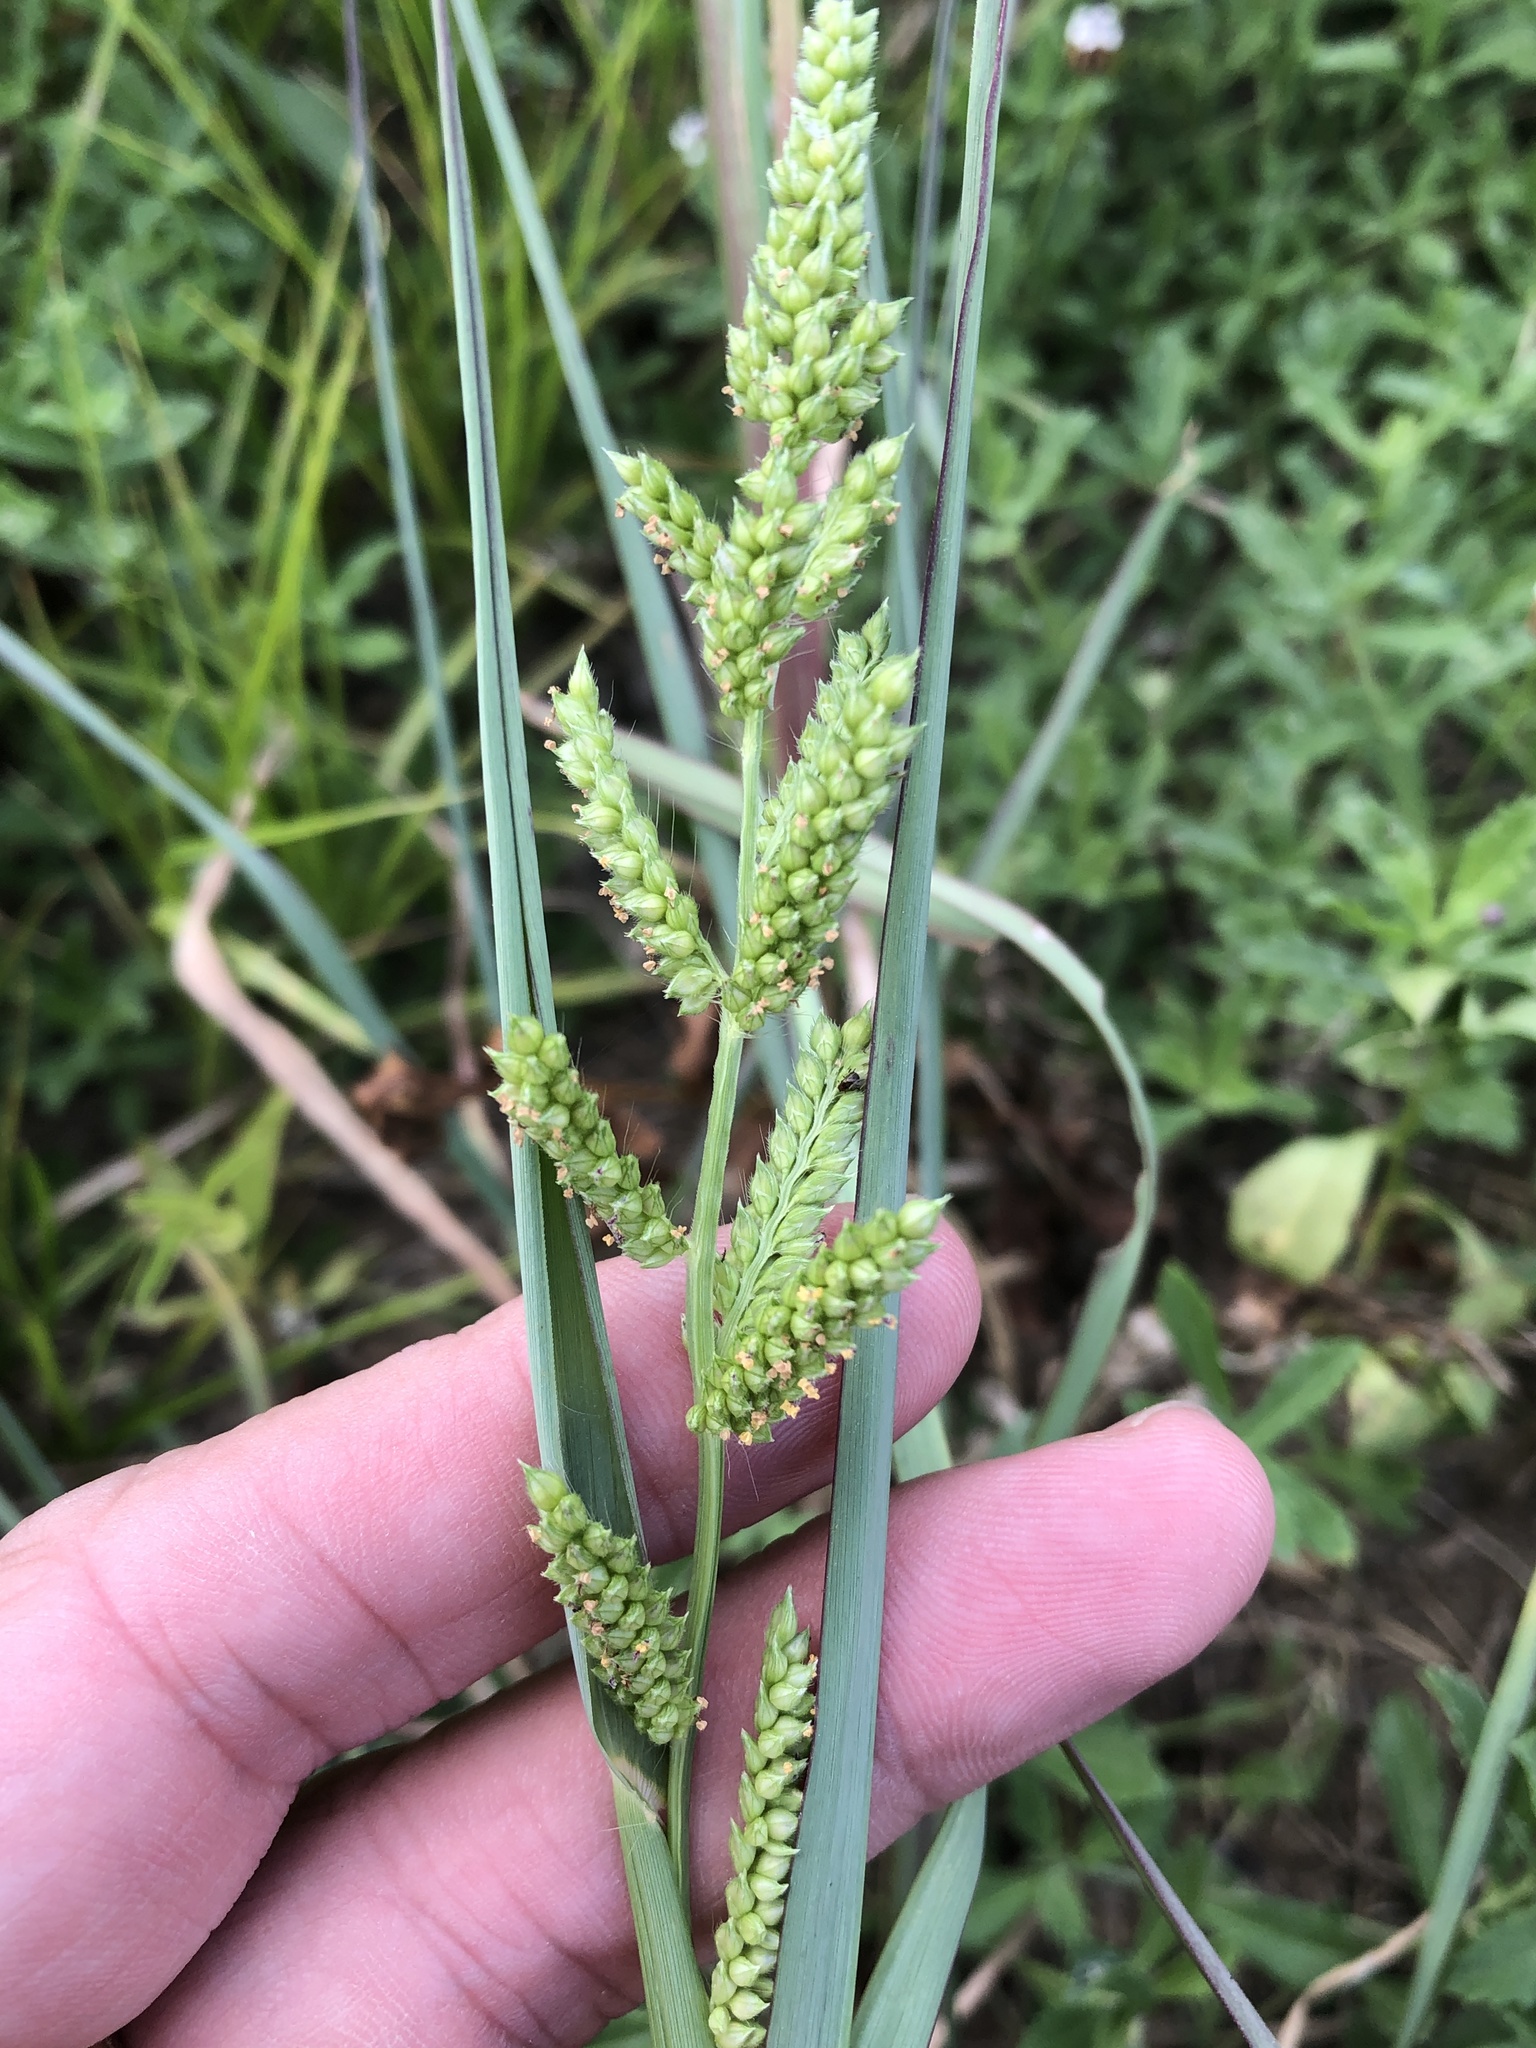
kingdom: Plantae
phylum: Tracheophyta
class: Liliopsida
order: Poales
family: Poaceae
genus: Echinochloa
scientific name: Echinochloa crus-galli
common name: Cockspur
